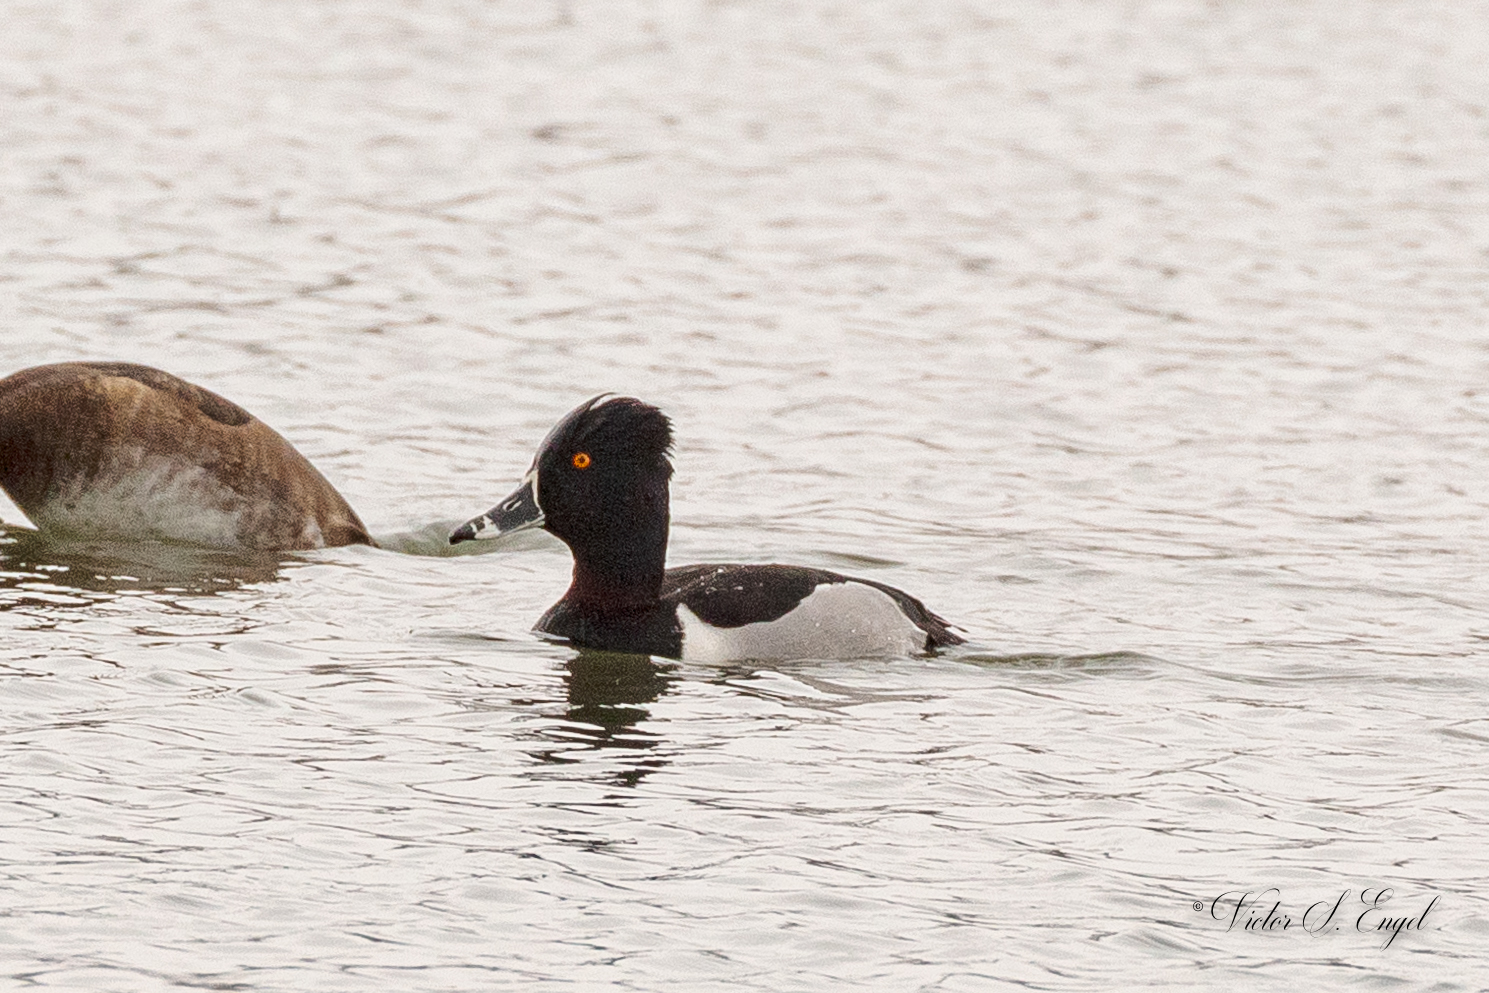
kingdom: Animalia
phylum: Chordata
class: Aves
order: Anseriformes
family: Anatidae
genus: Aythya
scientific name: Aythya collaris
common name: Ring-necked duck
